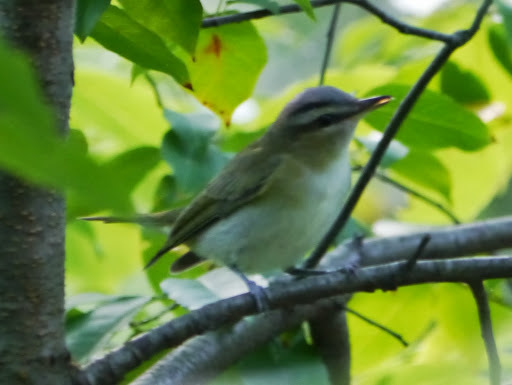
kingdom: Animalia
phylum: Chordata
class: Aves
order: Passeriformes
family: Vireonidae
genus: Vireo
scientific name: Vireo olivaceus
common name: Red-eyed vireo
